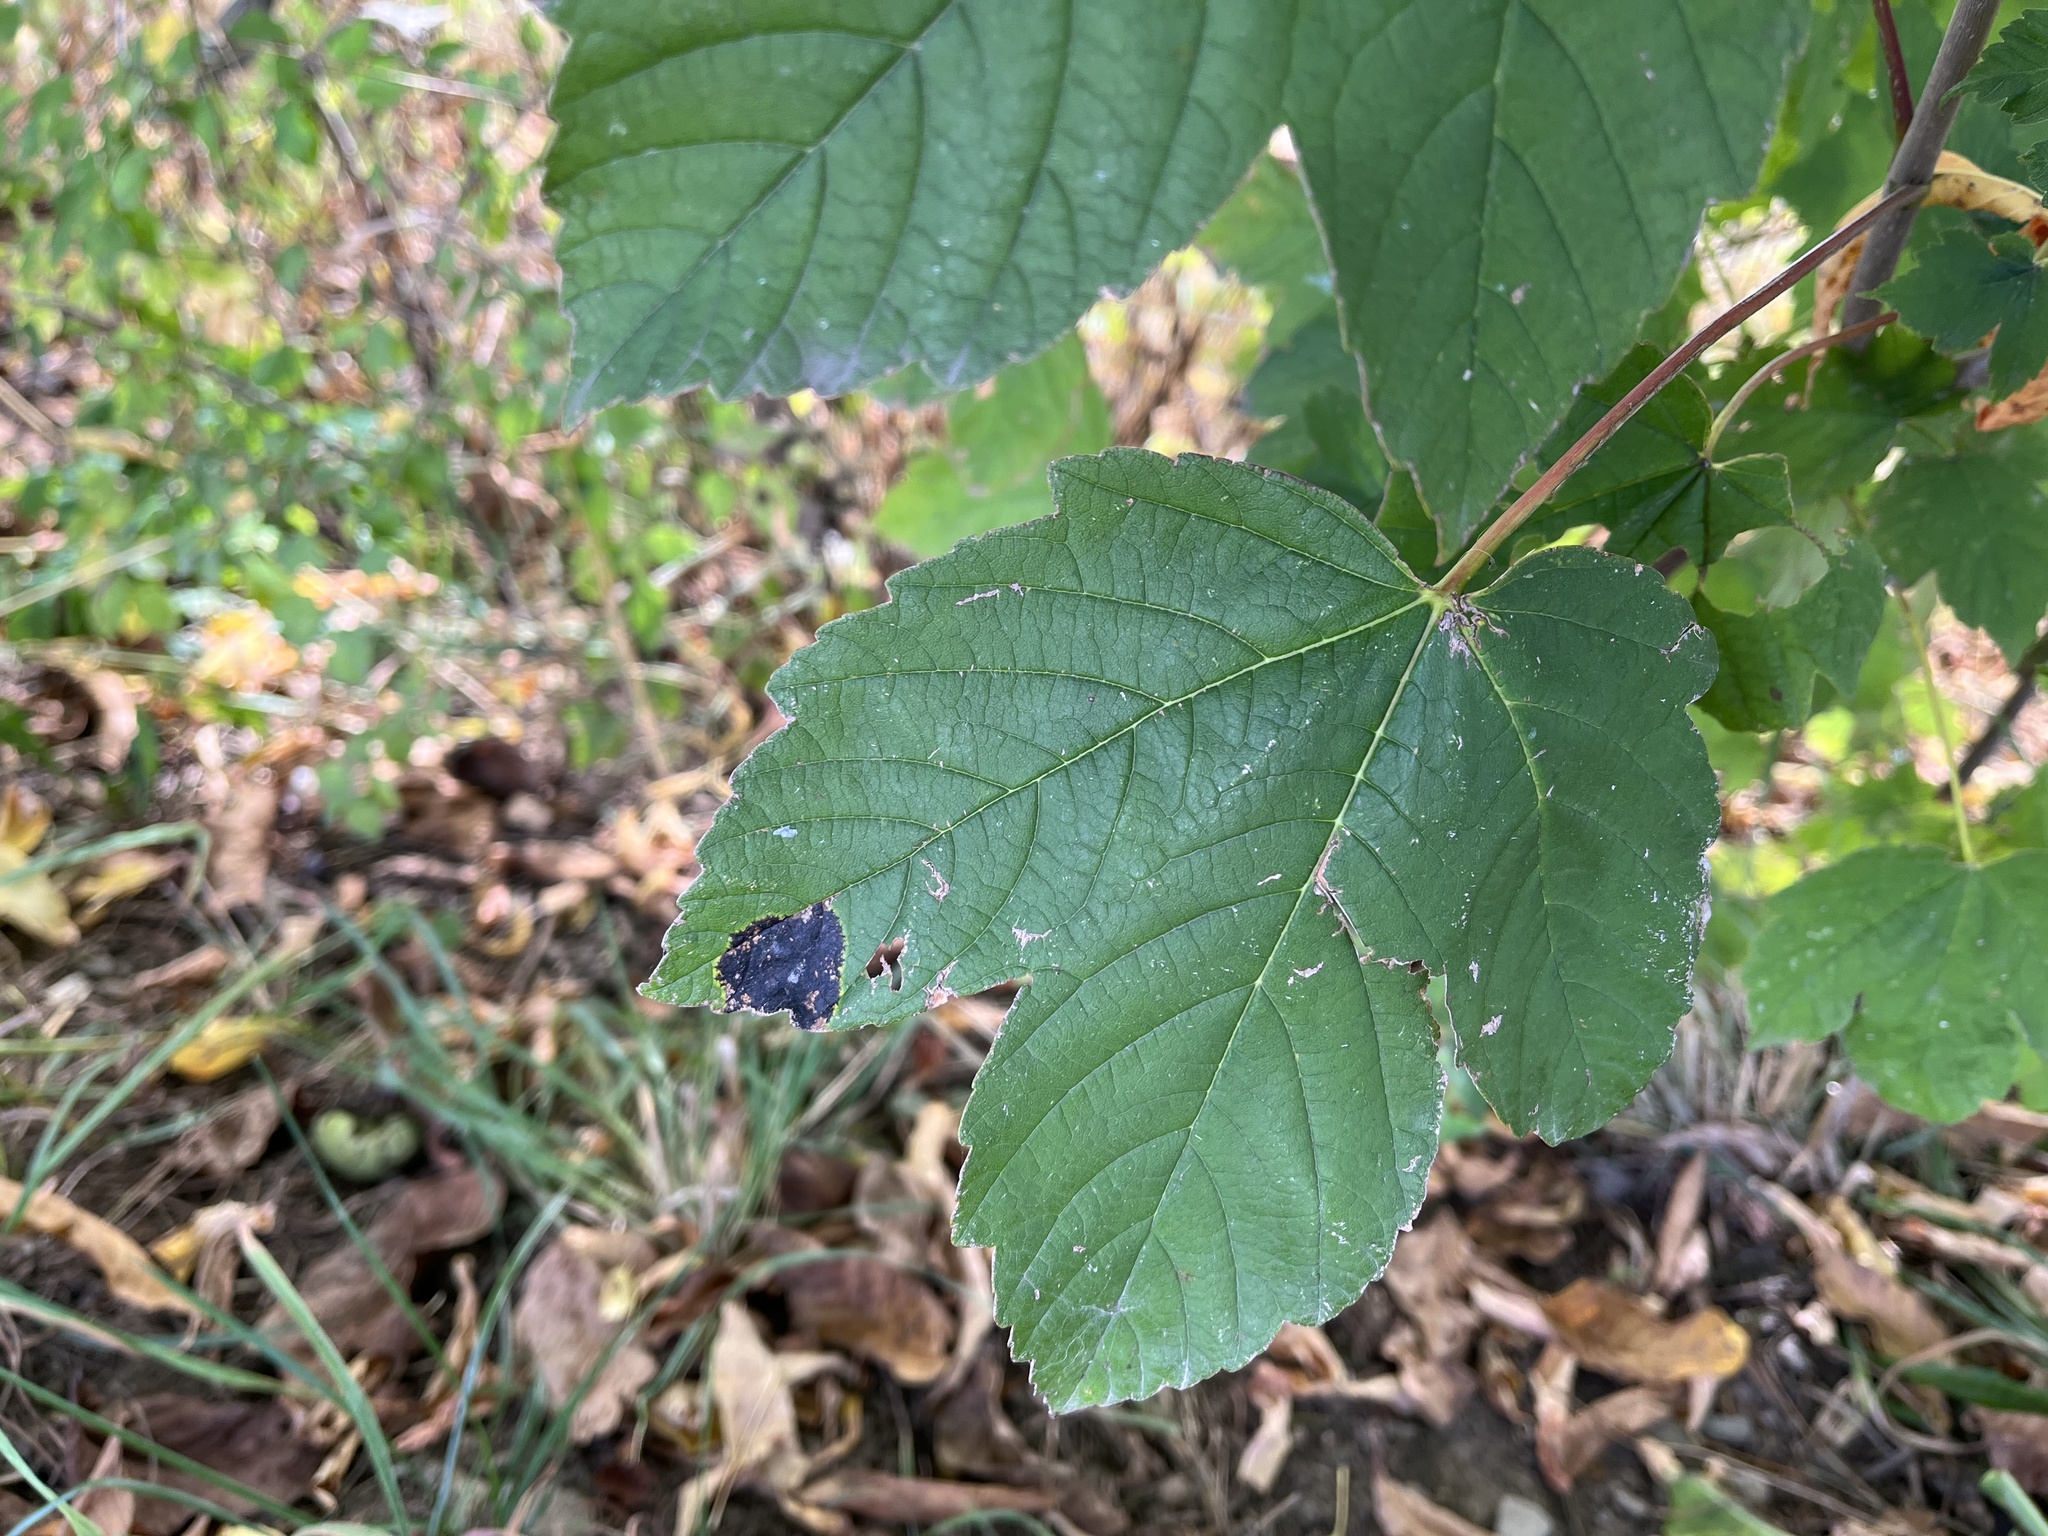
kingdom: Fungi
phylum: Ascomycota
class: Leotiomycetes
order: Rhytismatales
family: Rhytismataceae
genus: Rhytisma
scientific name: Rhytisma acerinum
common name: European tar spot
